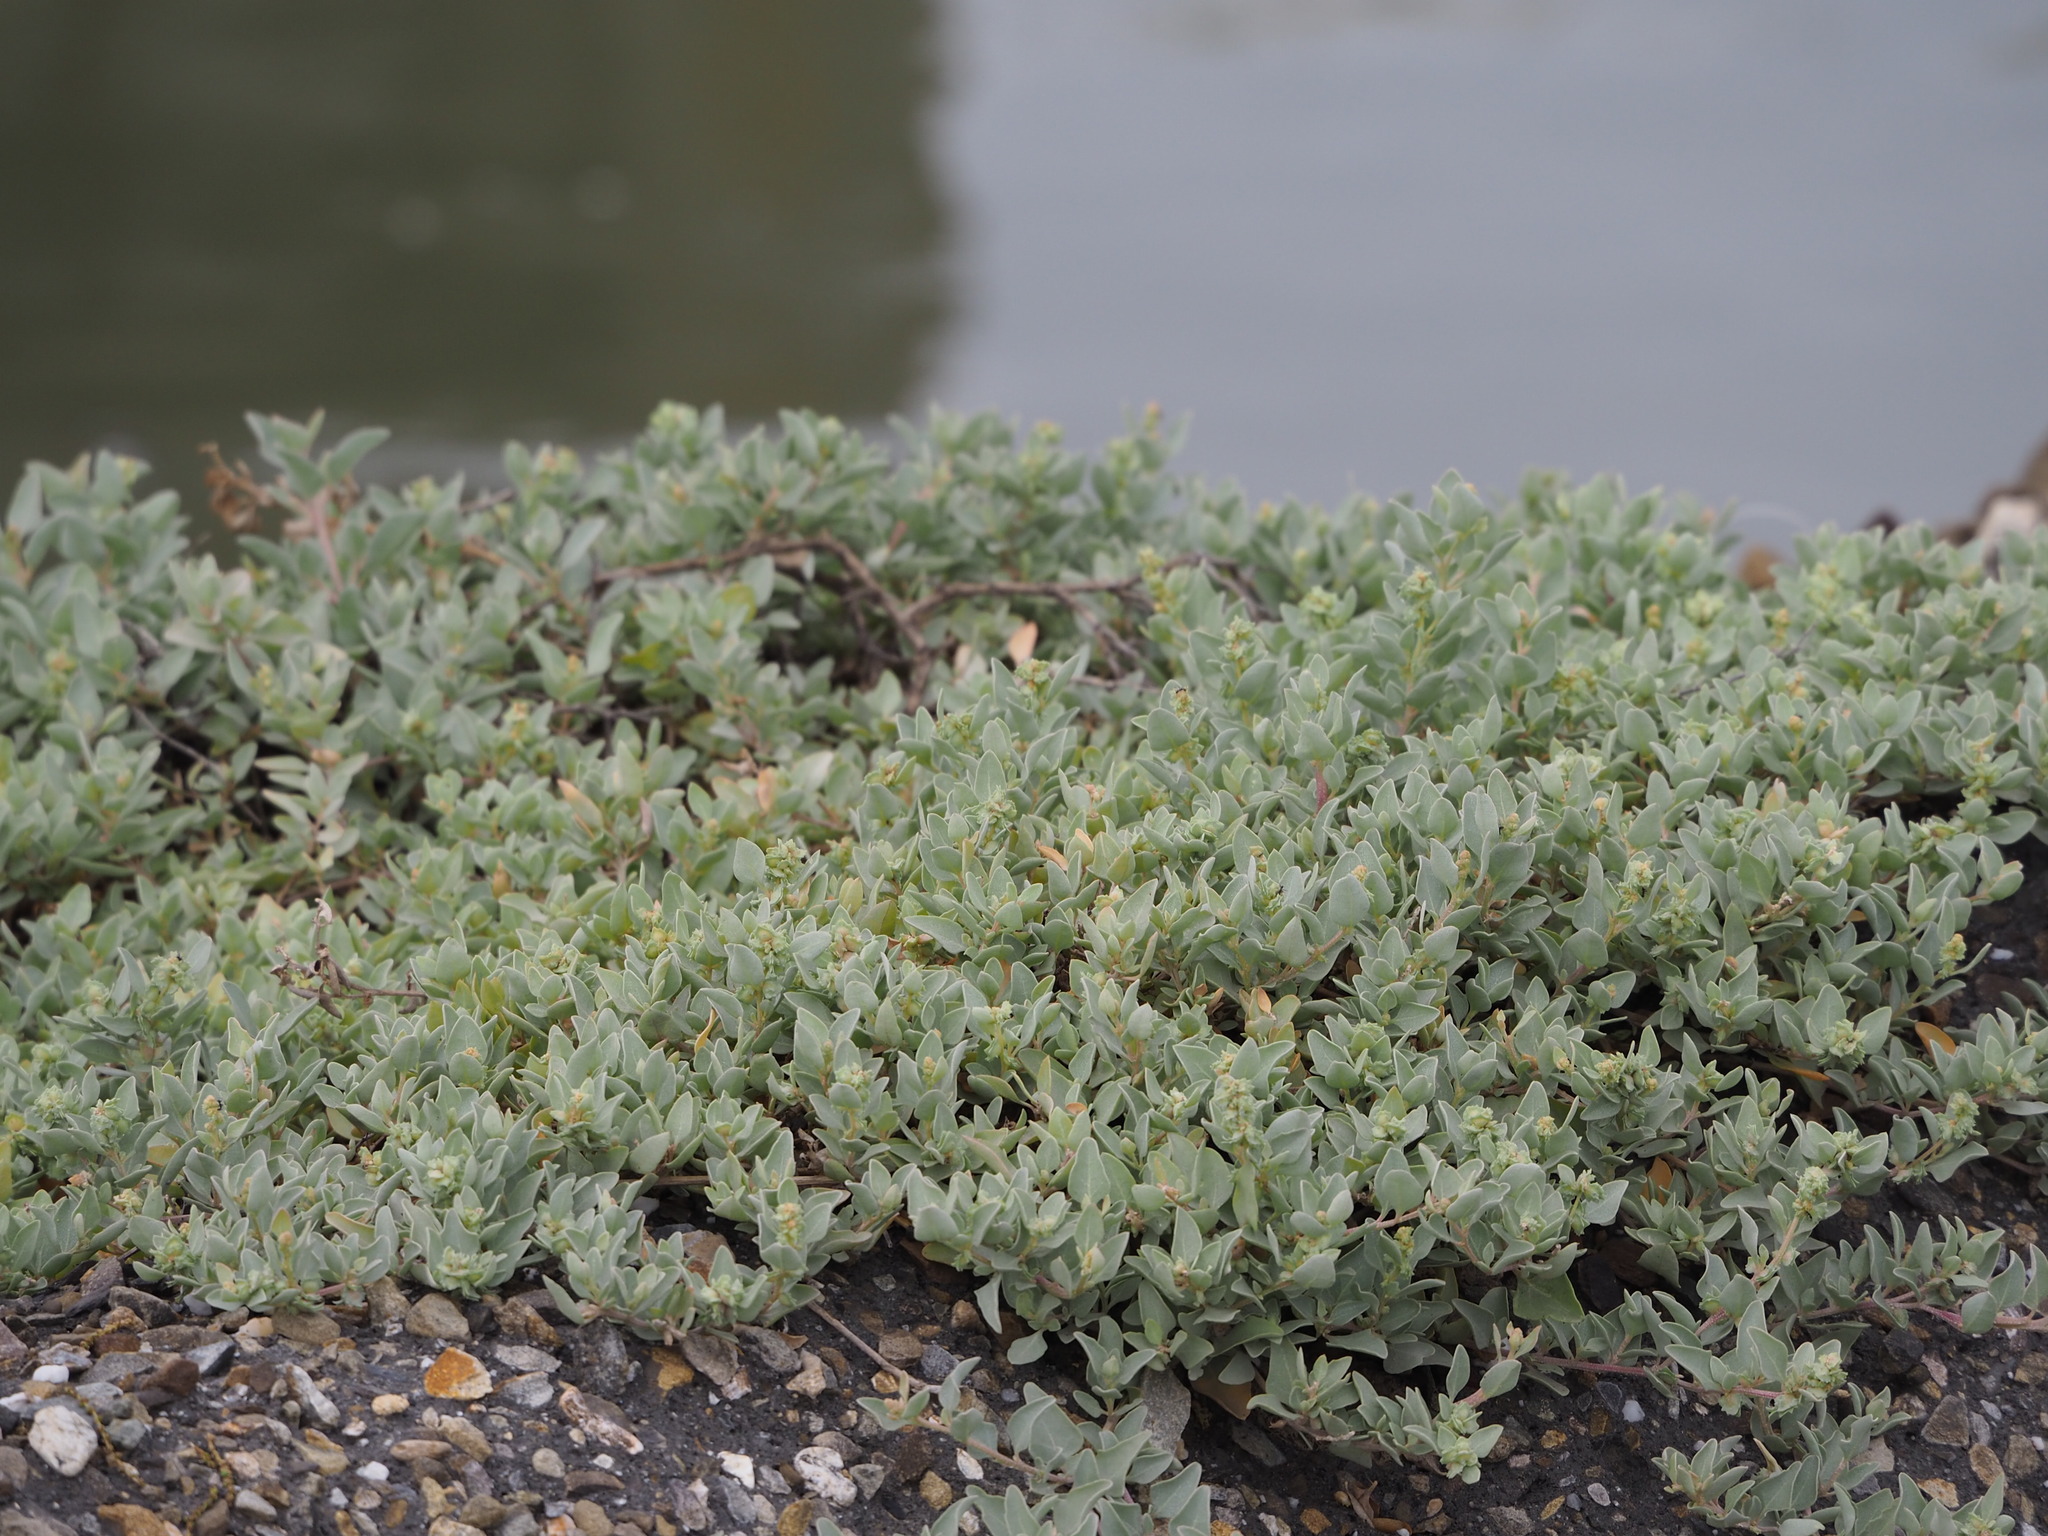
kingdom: Plantae
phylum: Tracheophyta
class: Magnoliopsida
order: Caryophyllales
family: Amaranthaceae
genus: Atriplex
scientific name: Atriplex maximowicziana
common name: Maximowicz's saltbush
